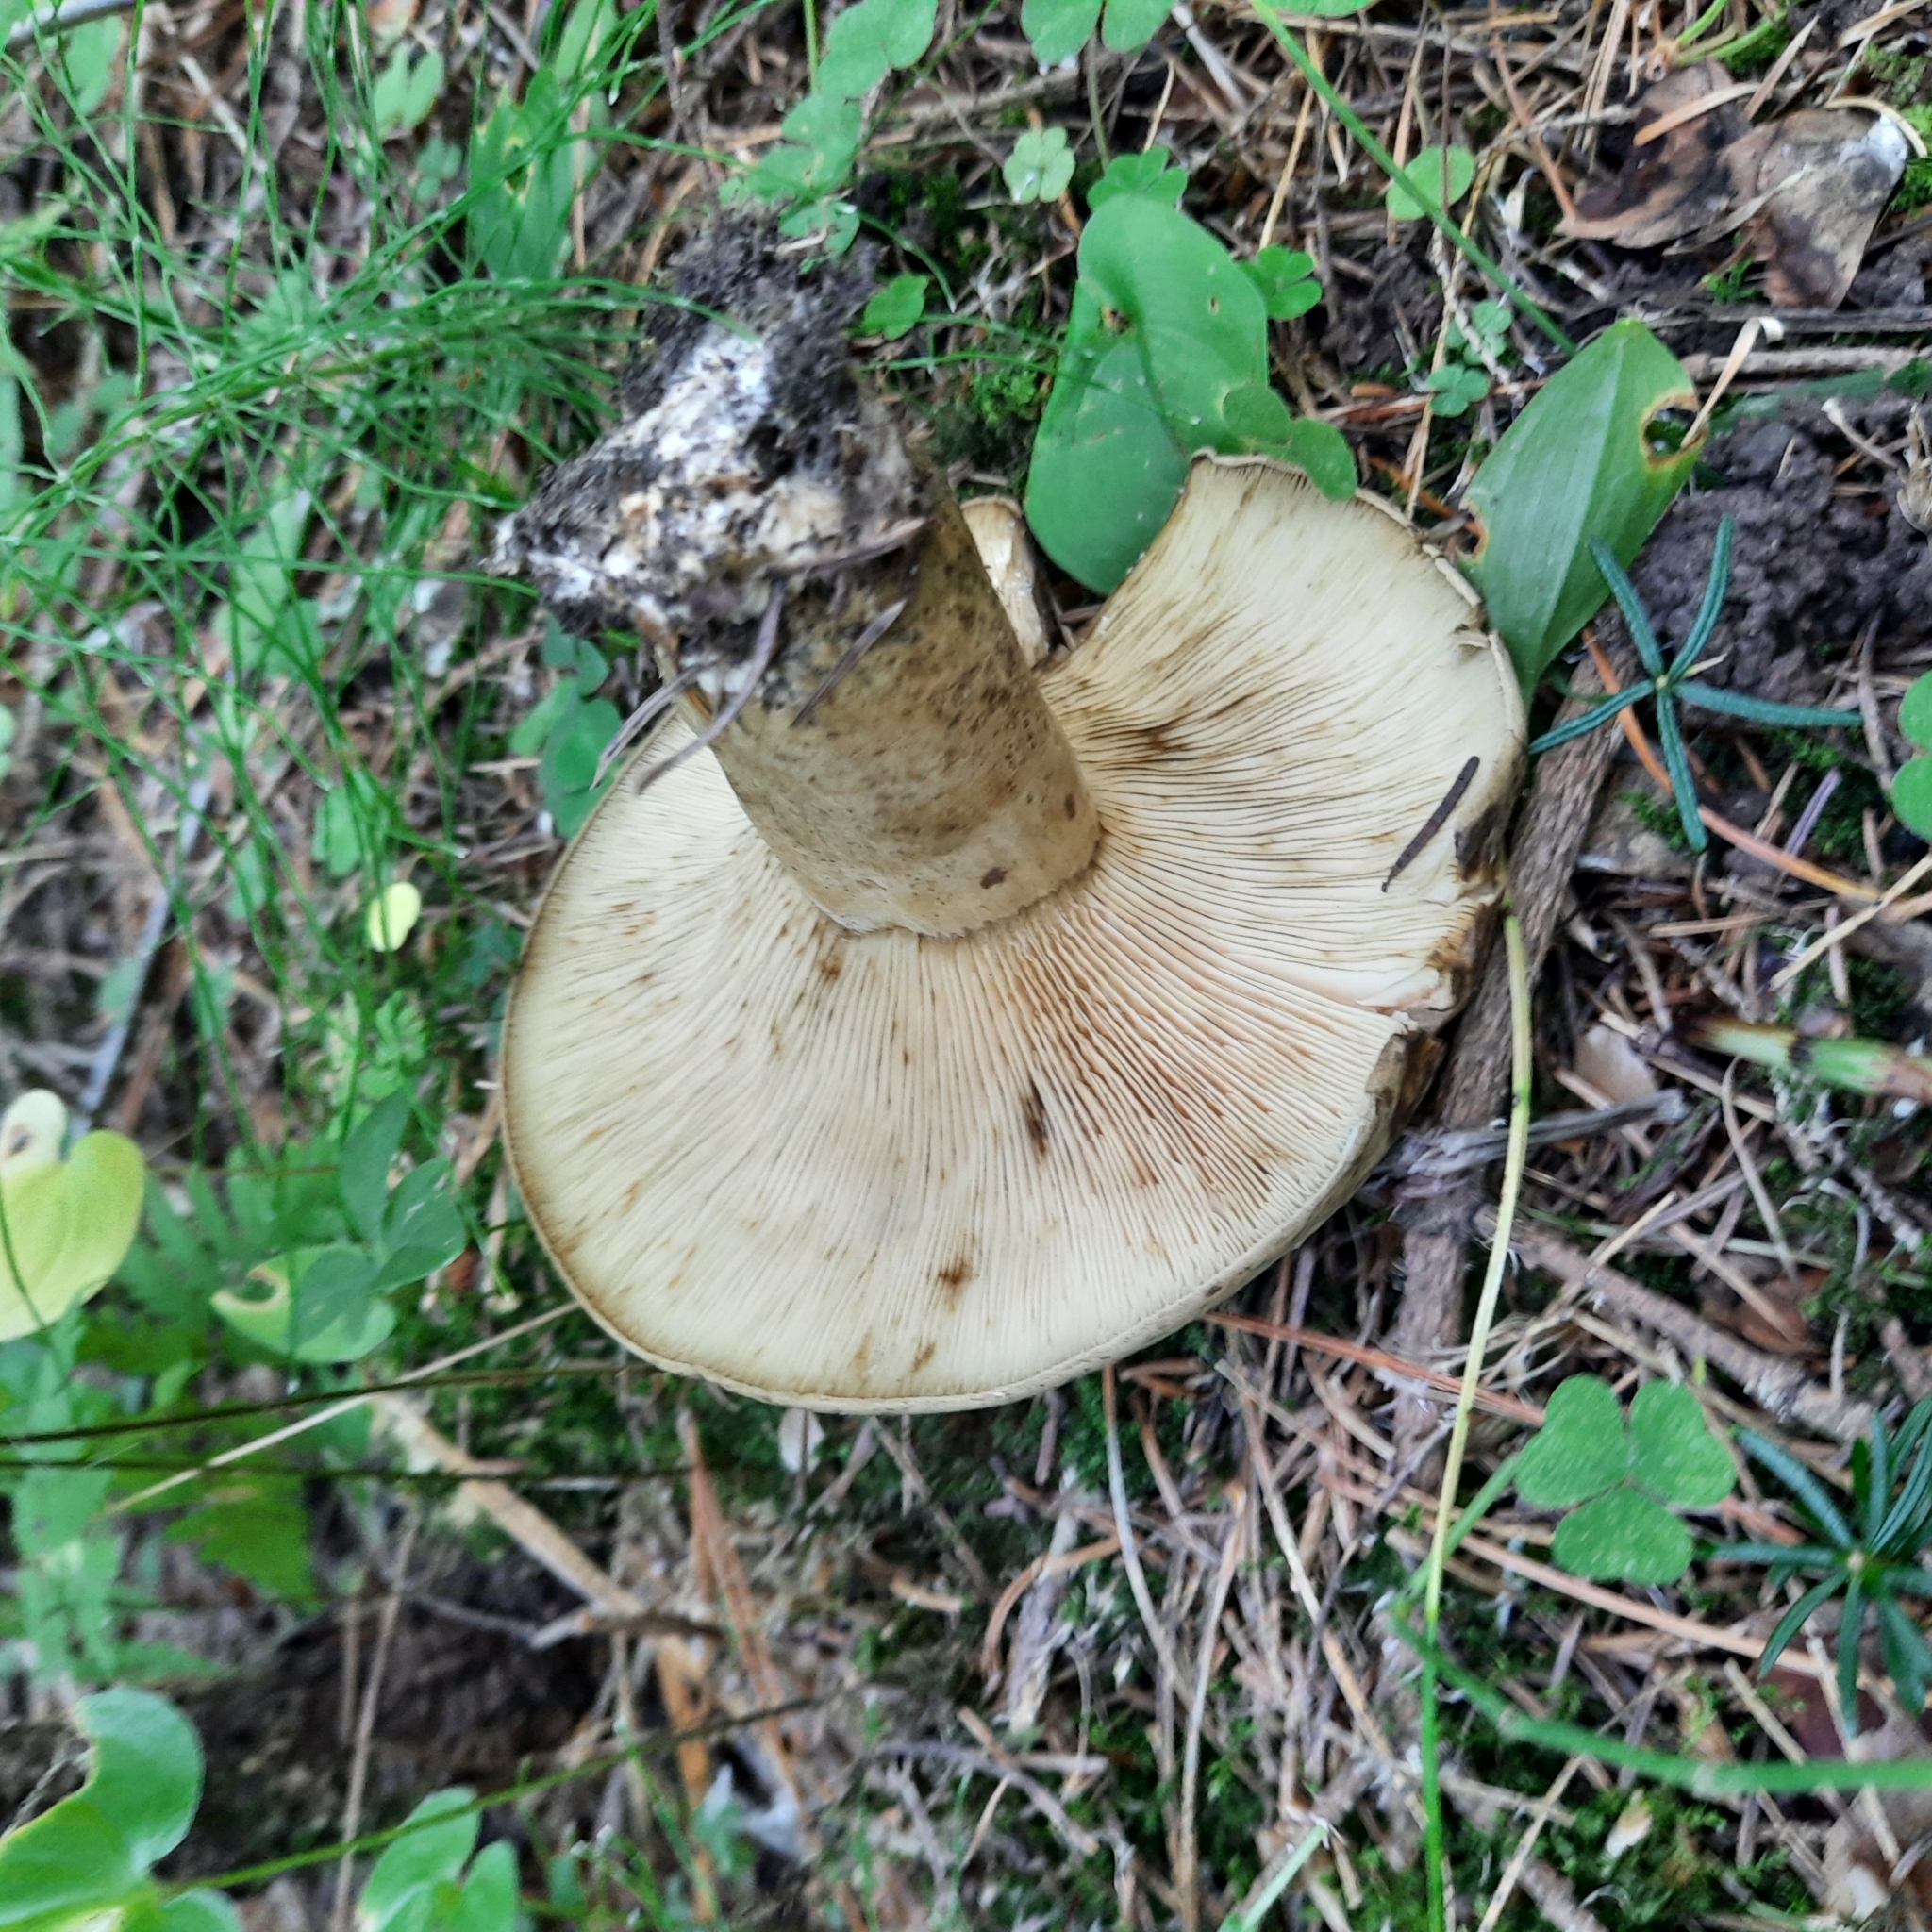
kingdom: Fungi
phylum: Basidiomycota
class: Agaricomycetes
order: Russulales
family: Russulaceae
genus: Lactarius
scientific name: Lactarius turpis
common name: Ugly milk-cap
